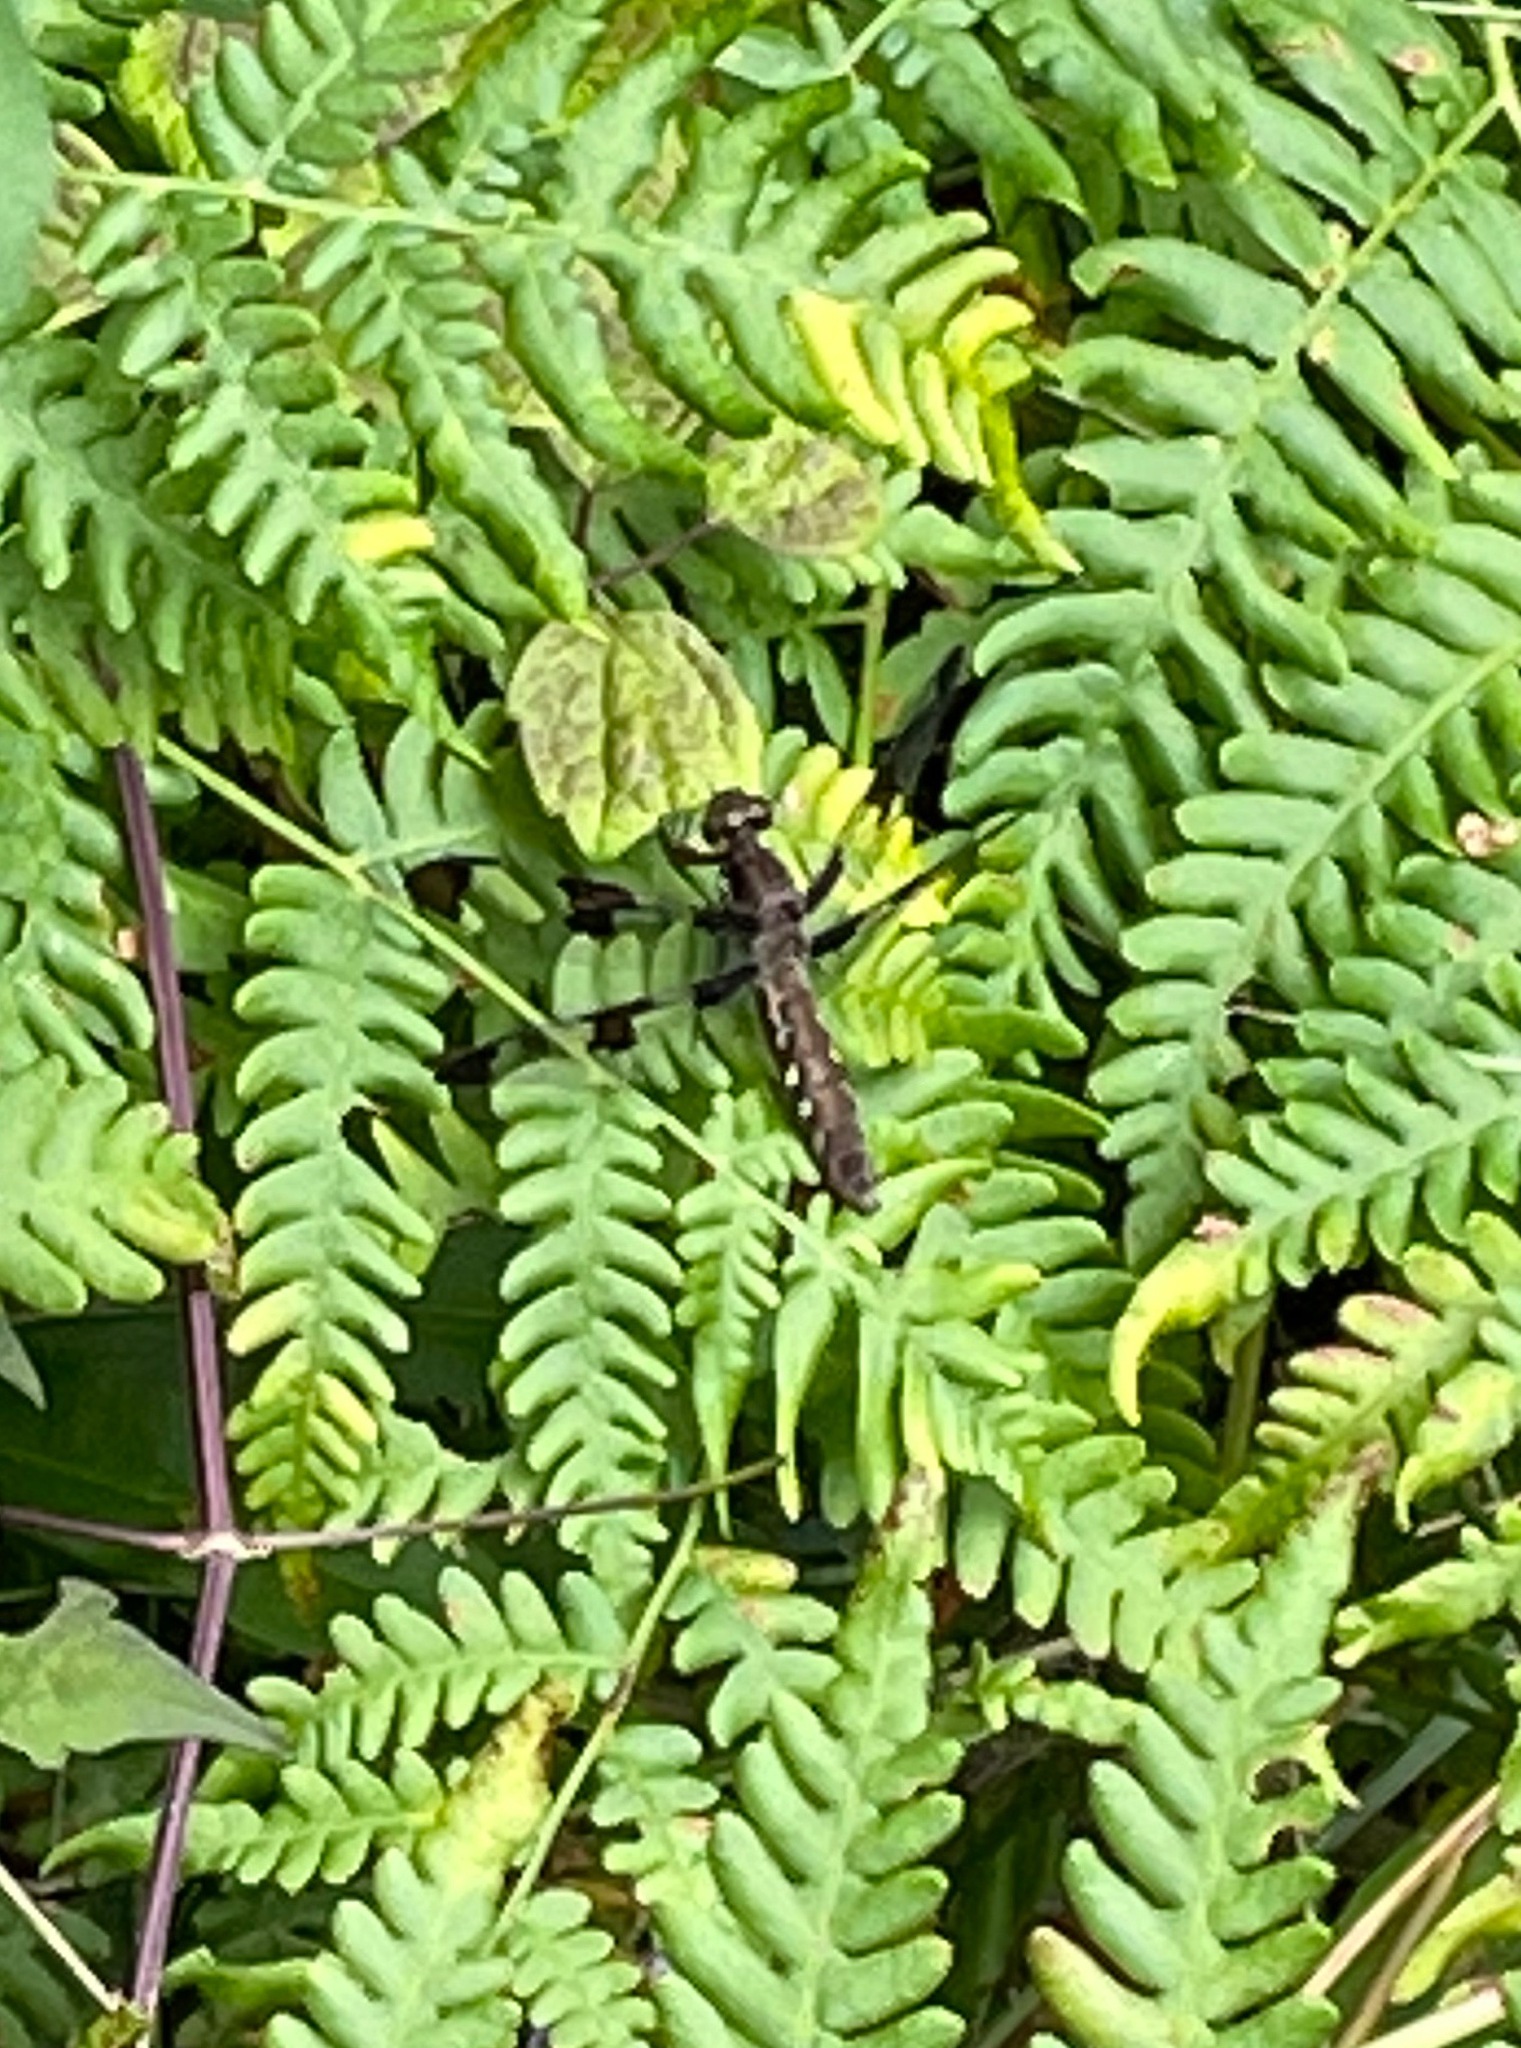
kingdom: Animalia
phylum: Arthropoda
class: Insecta
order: Odonata
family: Libellulidae
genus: Plathemis
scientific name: Plathemis lydia
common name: Common whitetail
